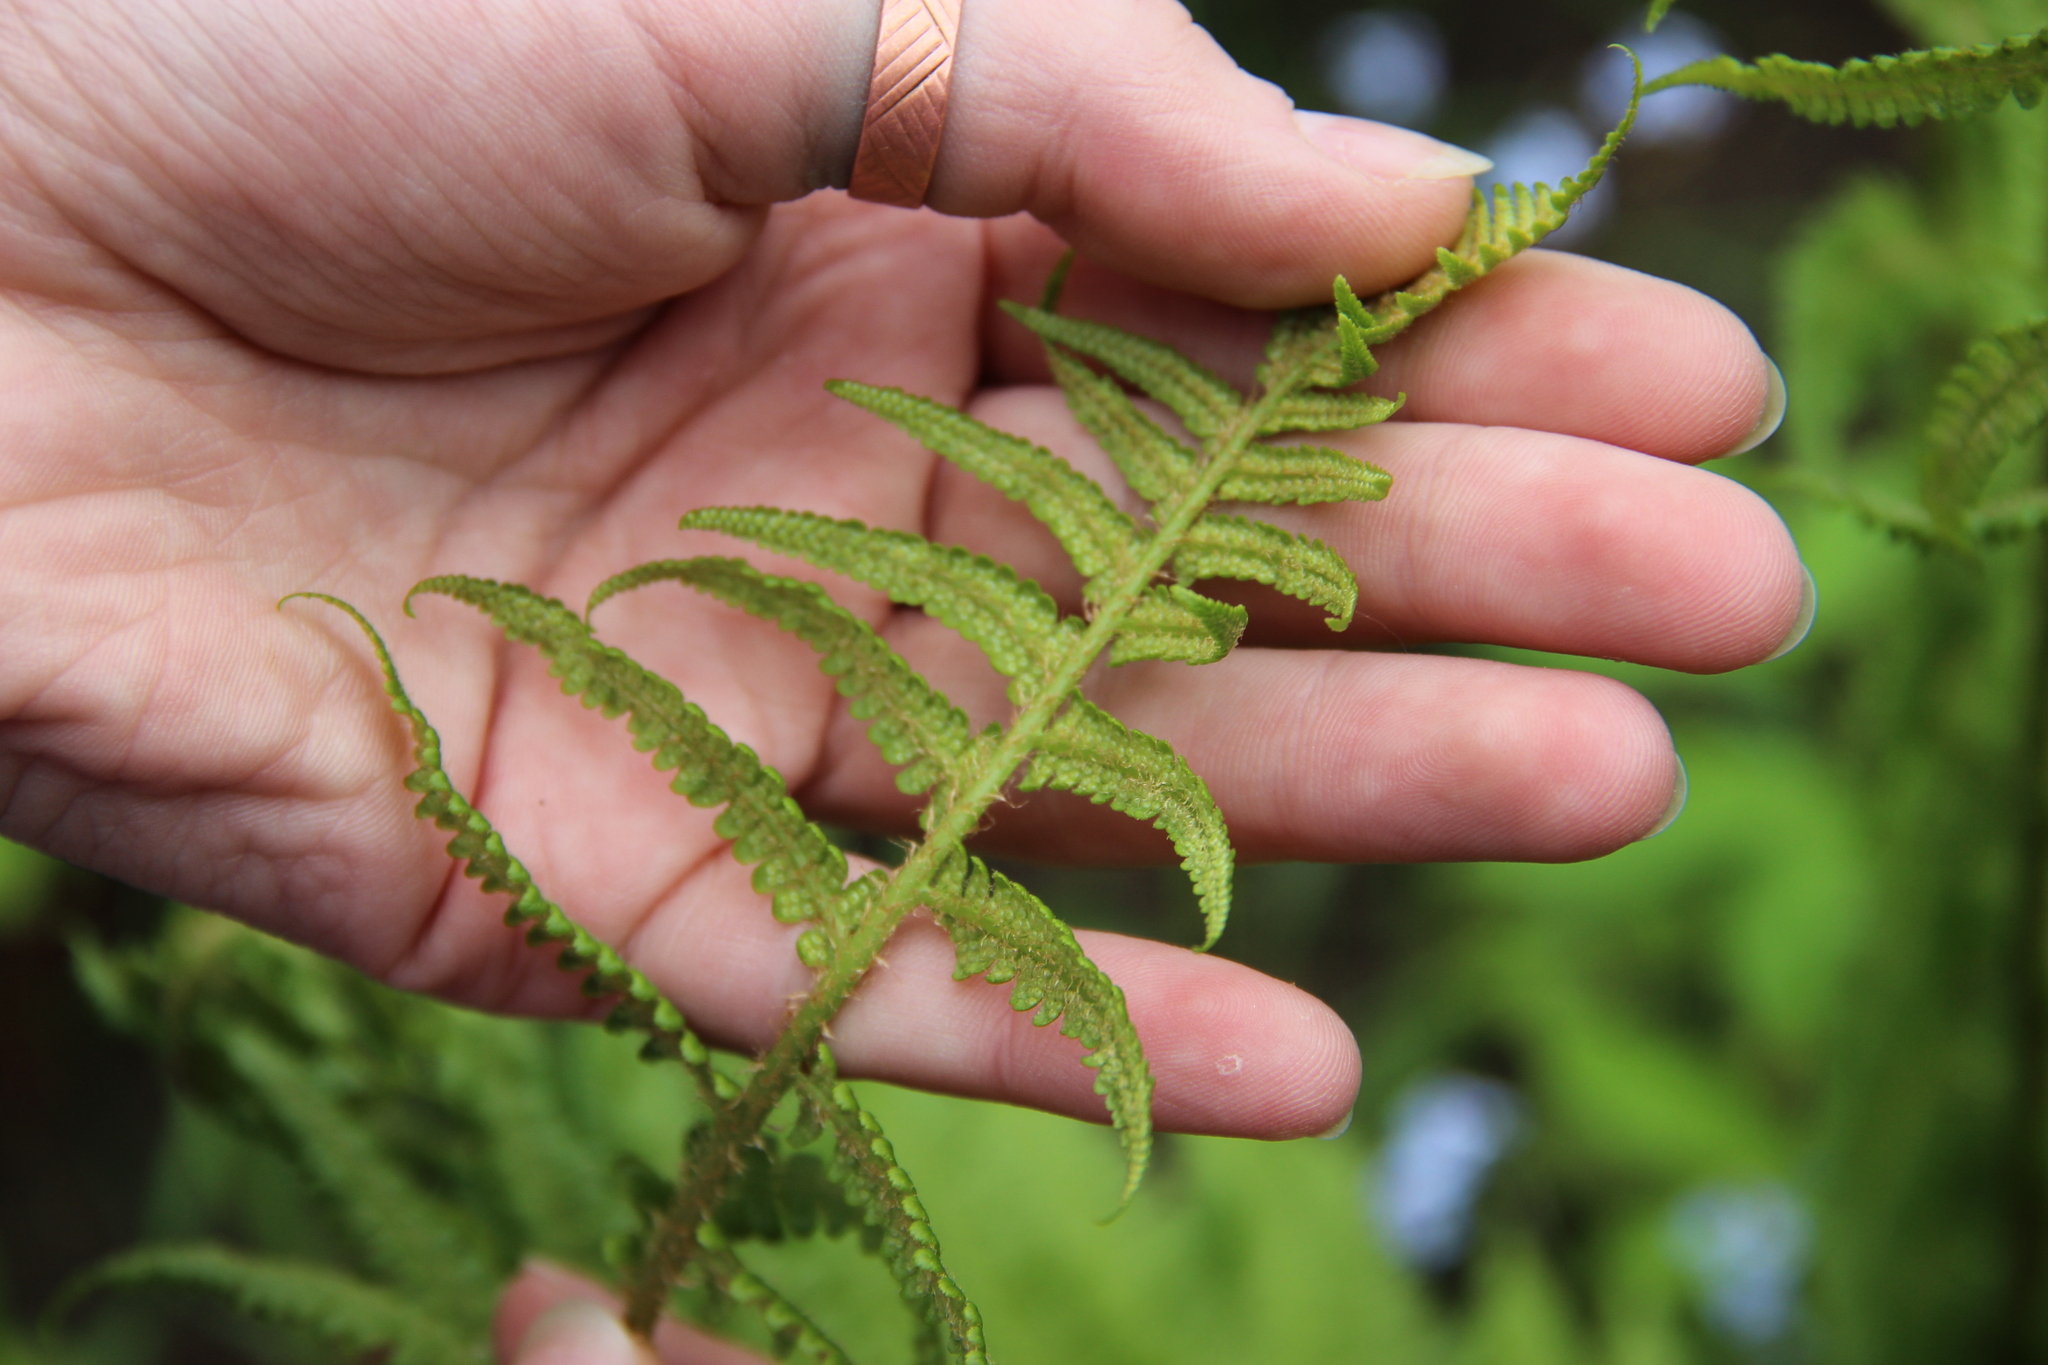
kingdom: Plantae
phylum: Tracheophyta
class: Polypodiopsida
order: Polypodiales
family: Dryopteridaceae
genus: Dryopteris
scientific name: Dryopteris filix-mas
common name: Male fern
